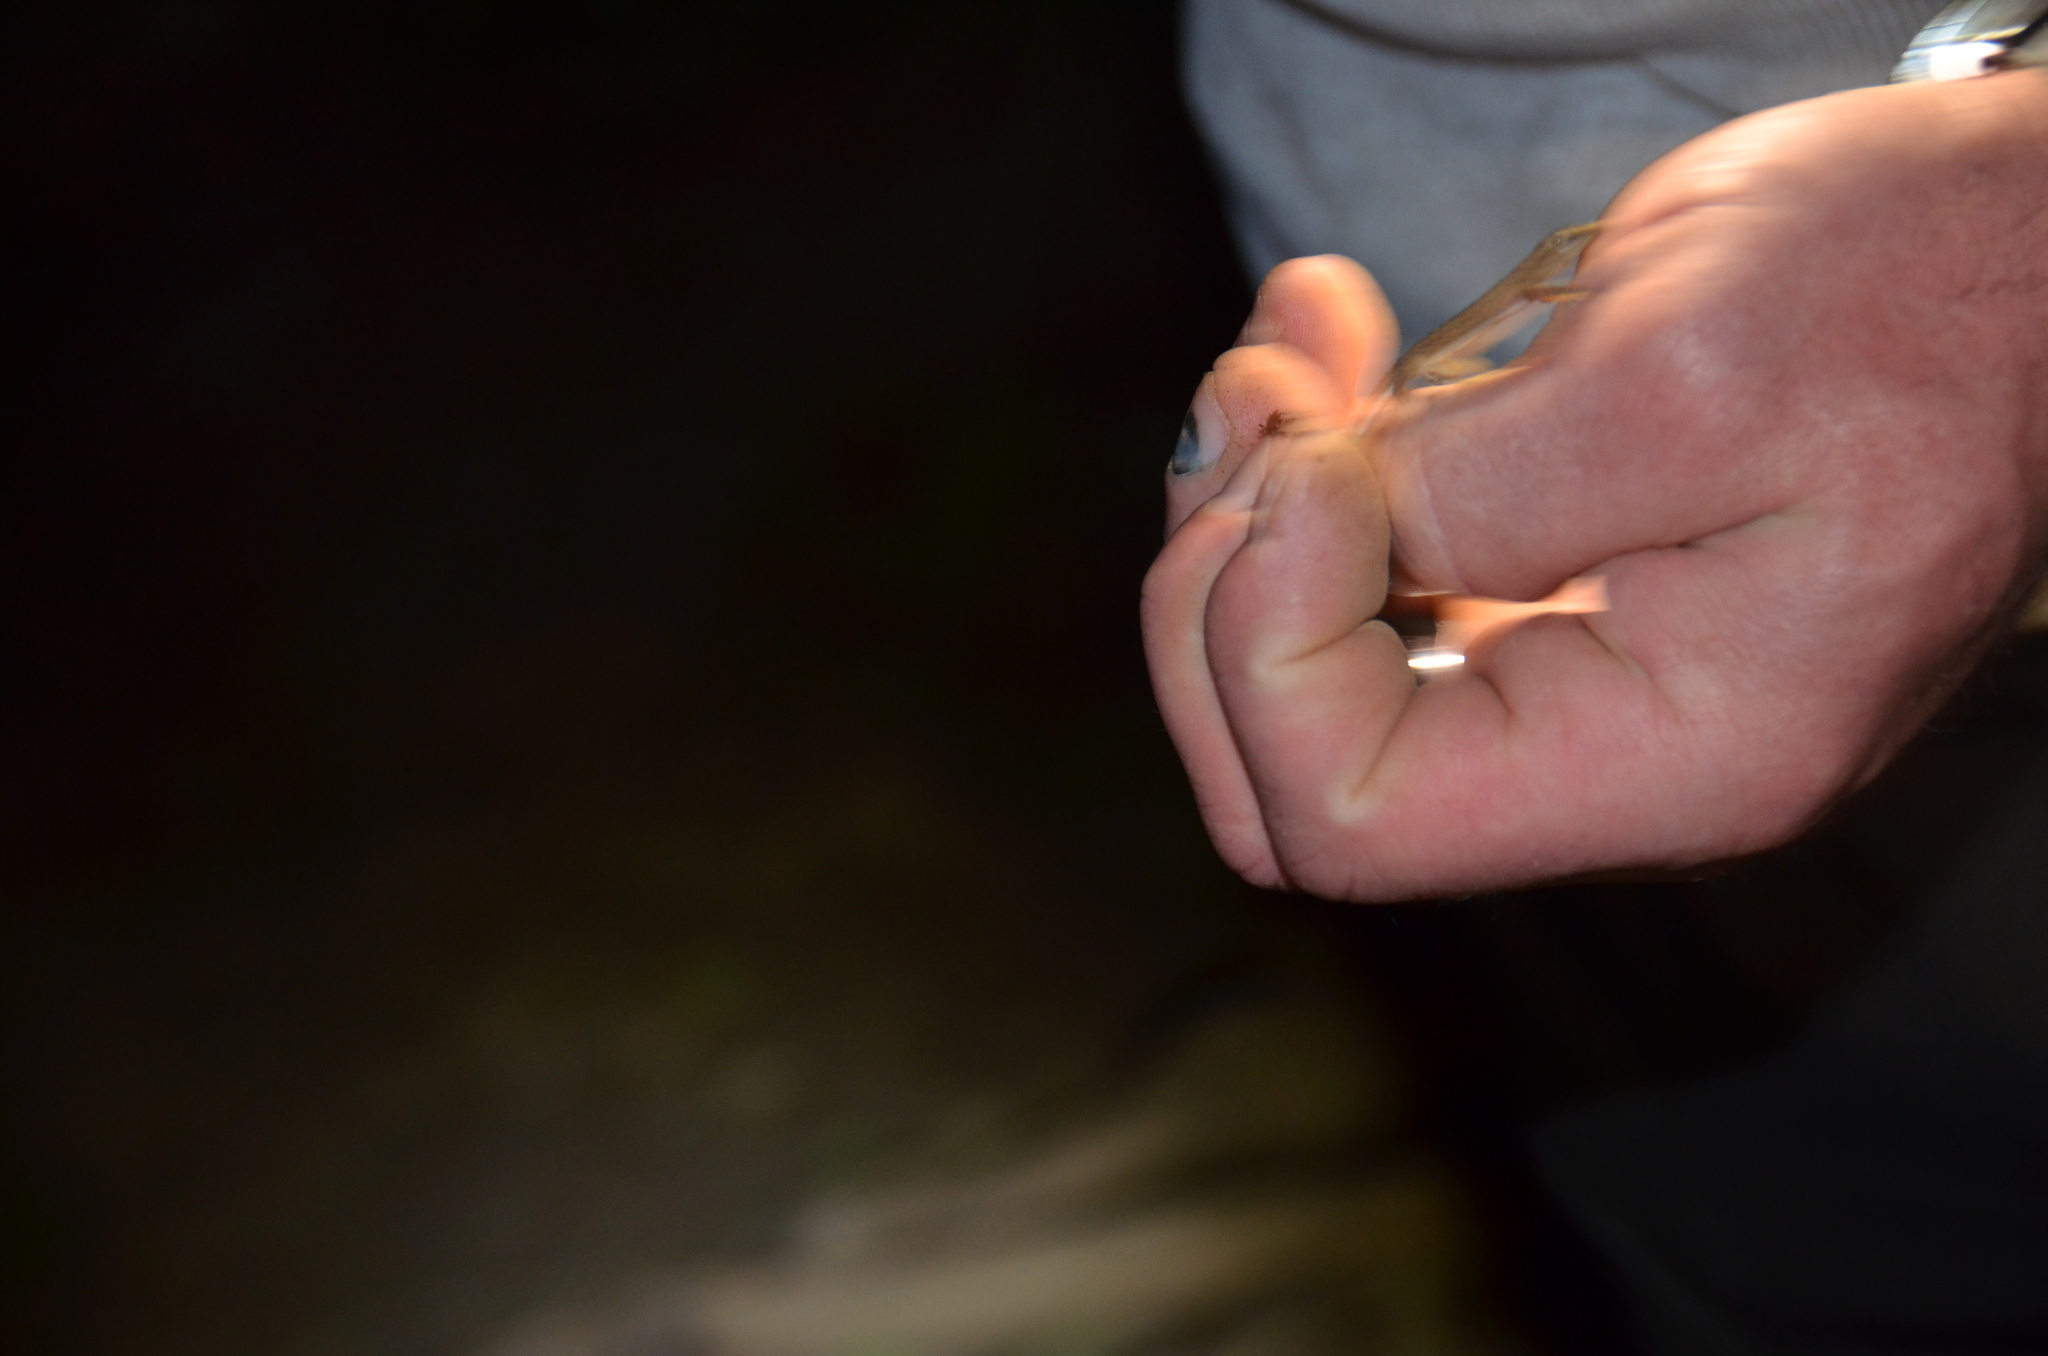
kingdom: Animalia
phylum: Chordata
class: Squamata
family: Gekkonidae
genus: Hemidactylus
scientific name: Hemidactylus frenatus
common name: Common house gecko
